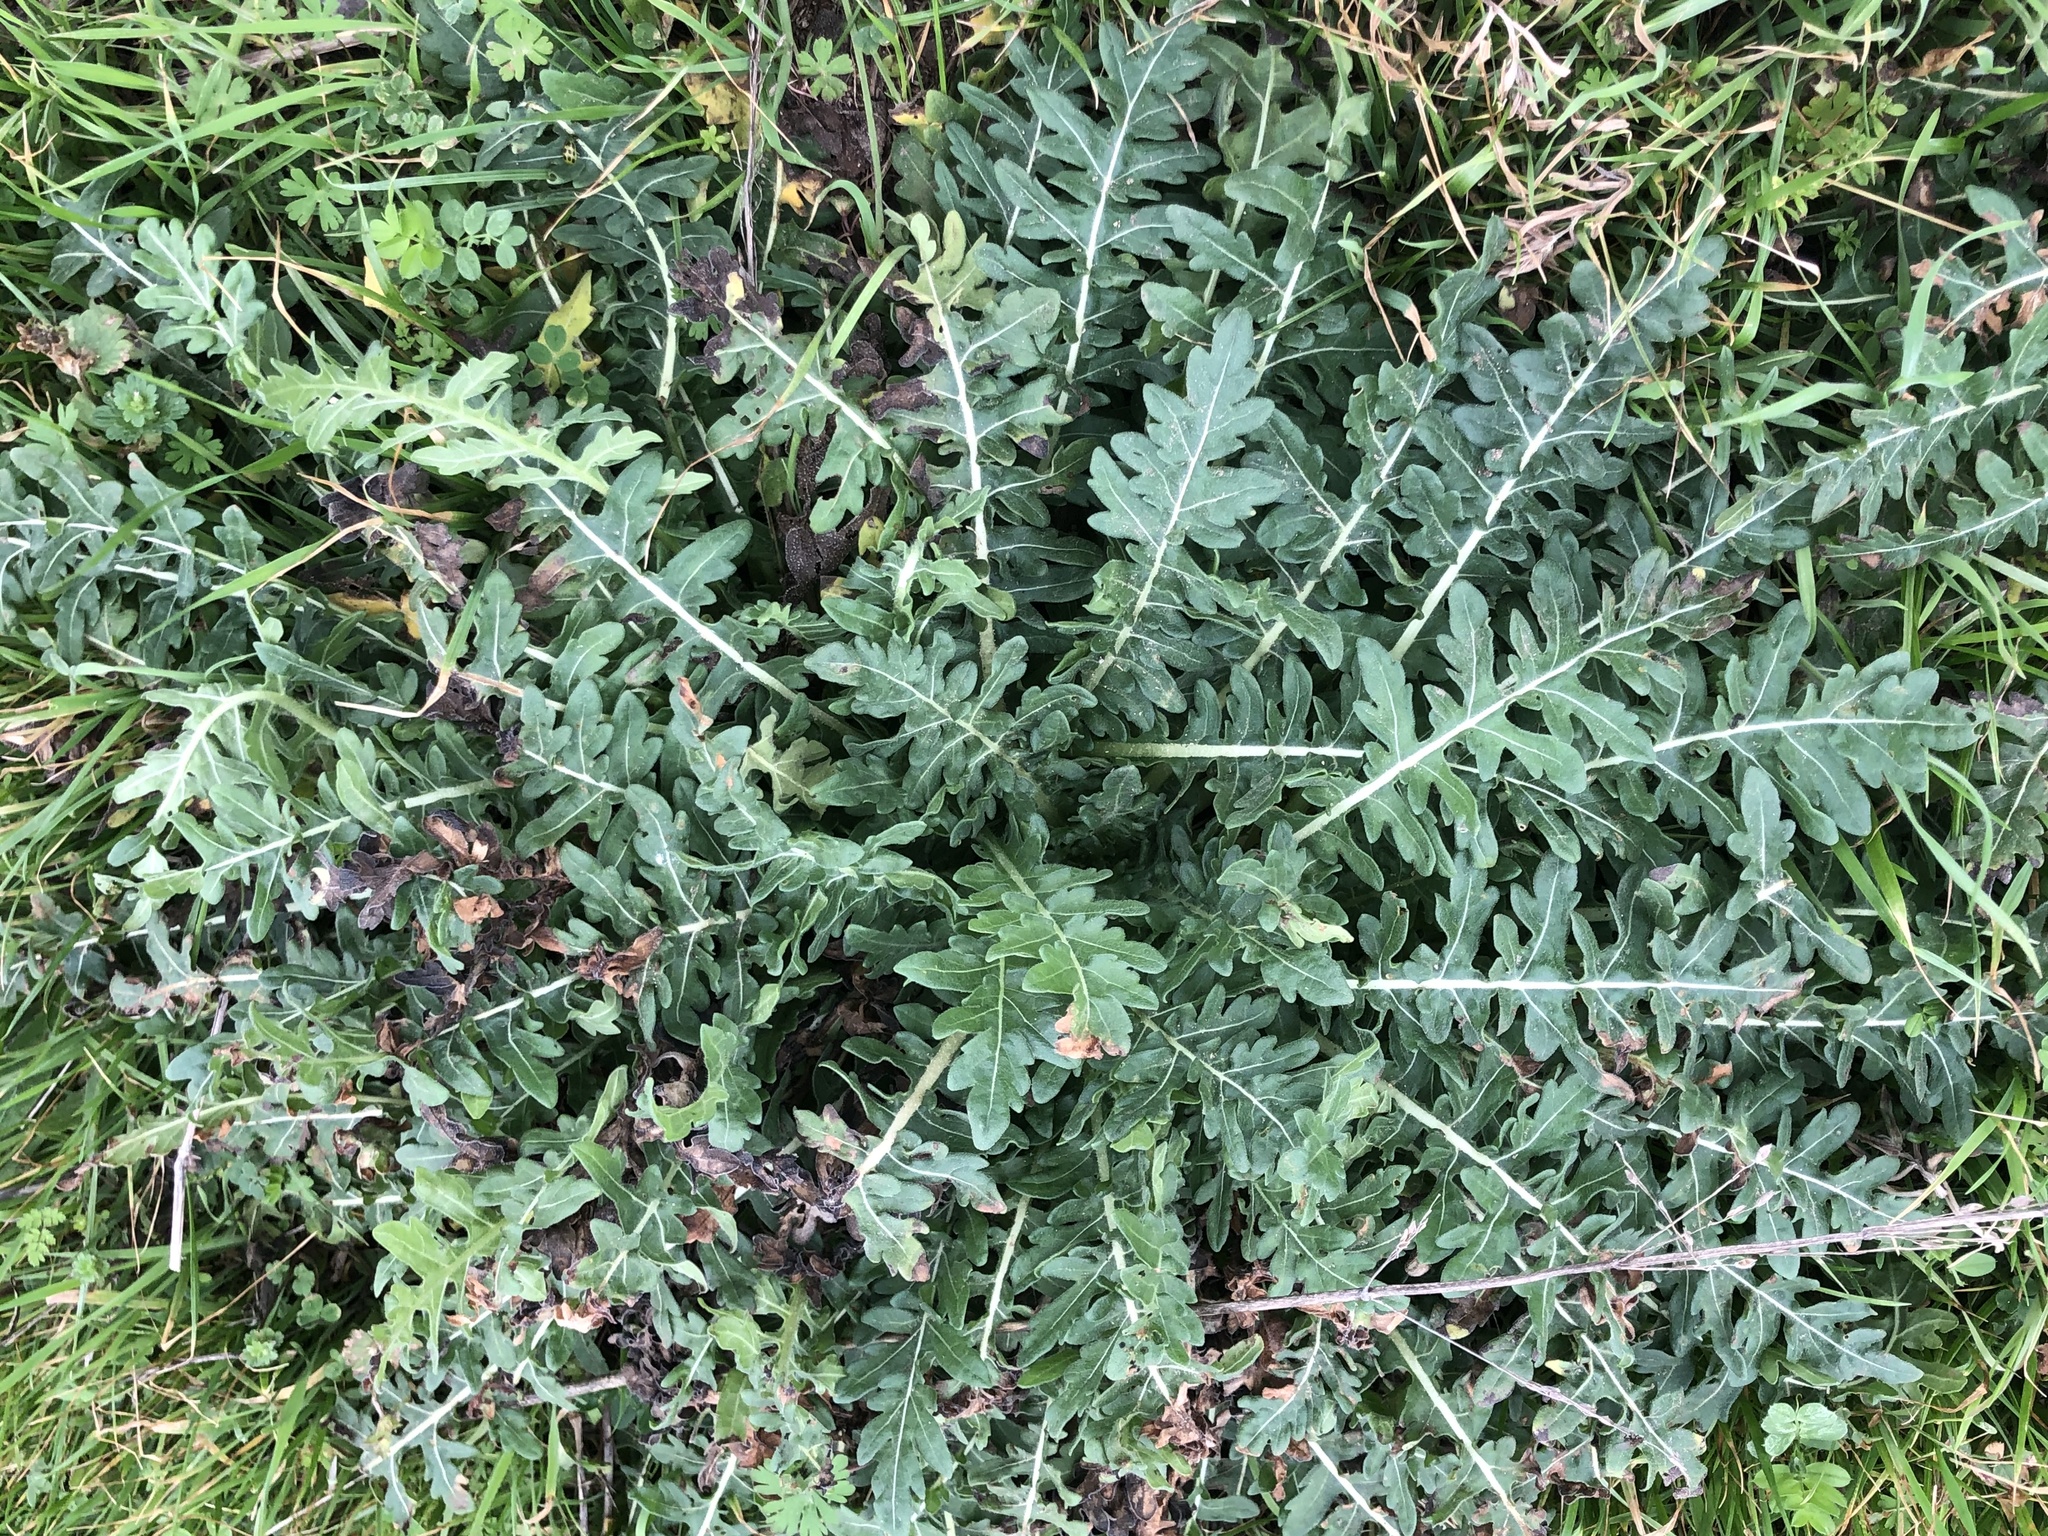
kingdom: Plantae
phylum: Tracheophyta
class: Magnoliopsida
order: Asterales
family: Asteraceae
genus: Engelmannia
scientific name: Engelmannia peristenia
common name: Engelmann's daisy
